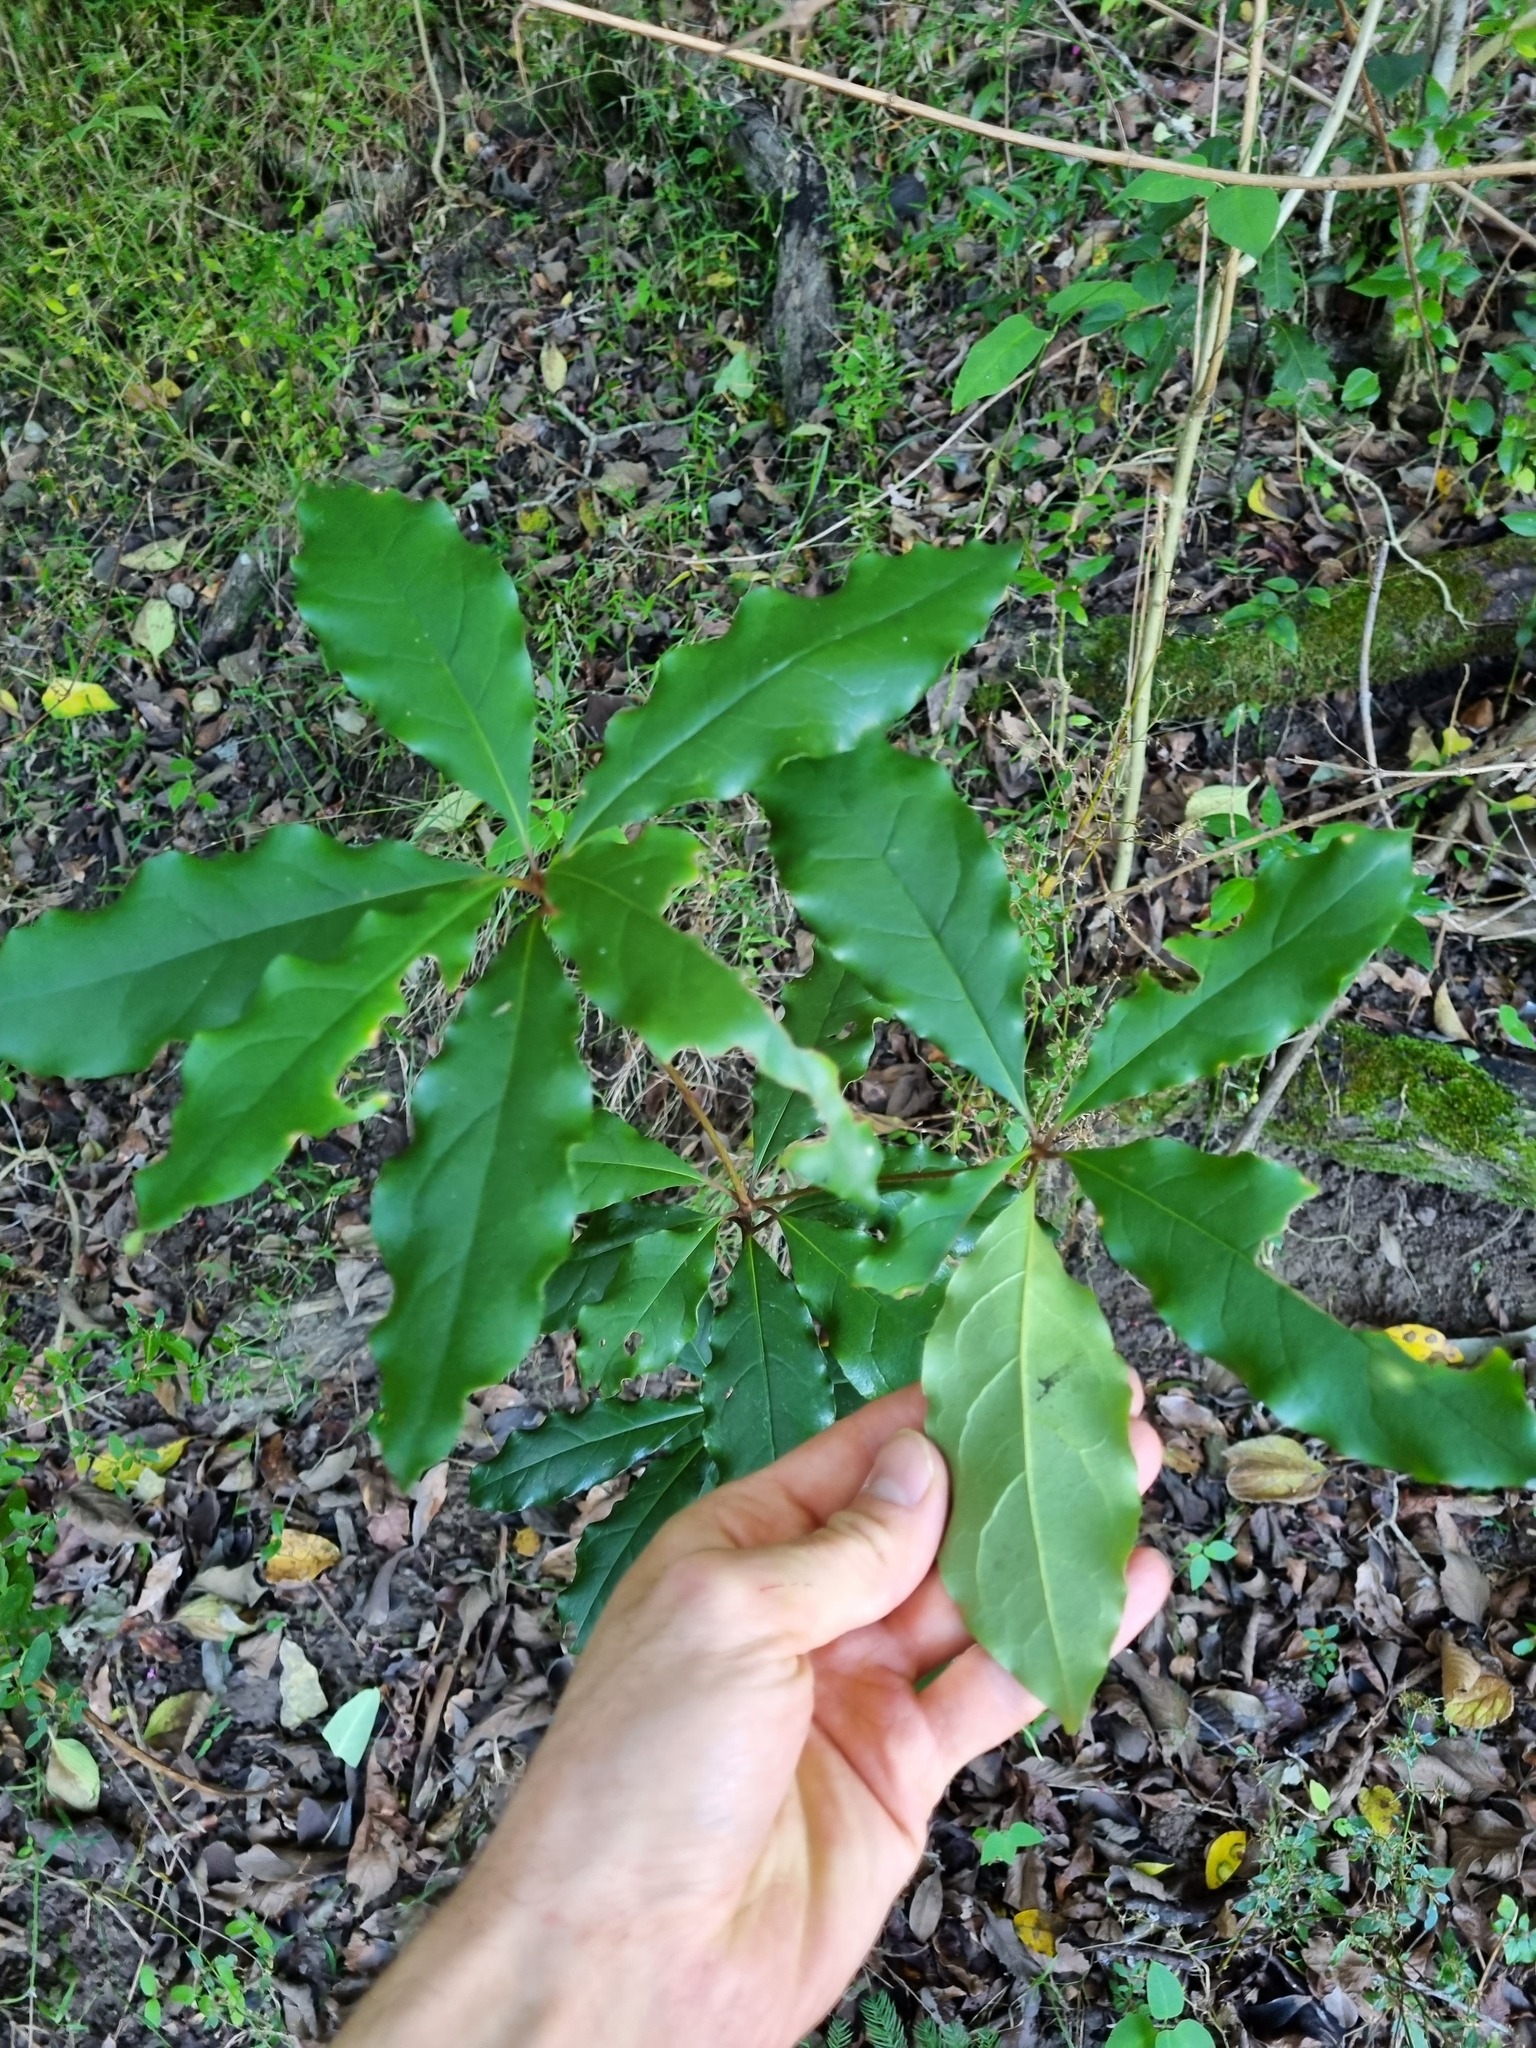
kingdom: Plantae
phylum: Tracheophyta
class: Magnoliopsida
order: Apiales
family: Pittosporaceae
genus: Pittosporum
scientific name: Pittosporum revolutum
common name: Brisbane-laurel
